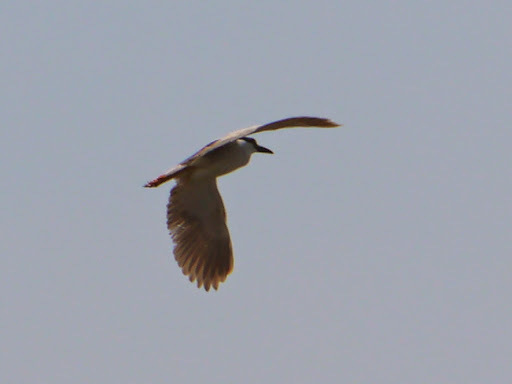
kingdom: Animalia
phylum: Chordata
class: Aves
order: Pelecaniformes
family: Ardeidae
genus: Nycticorax
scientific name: Nycticorax nycticorax
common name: Black-crowned night heron
